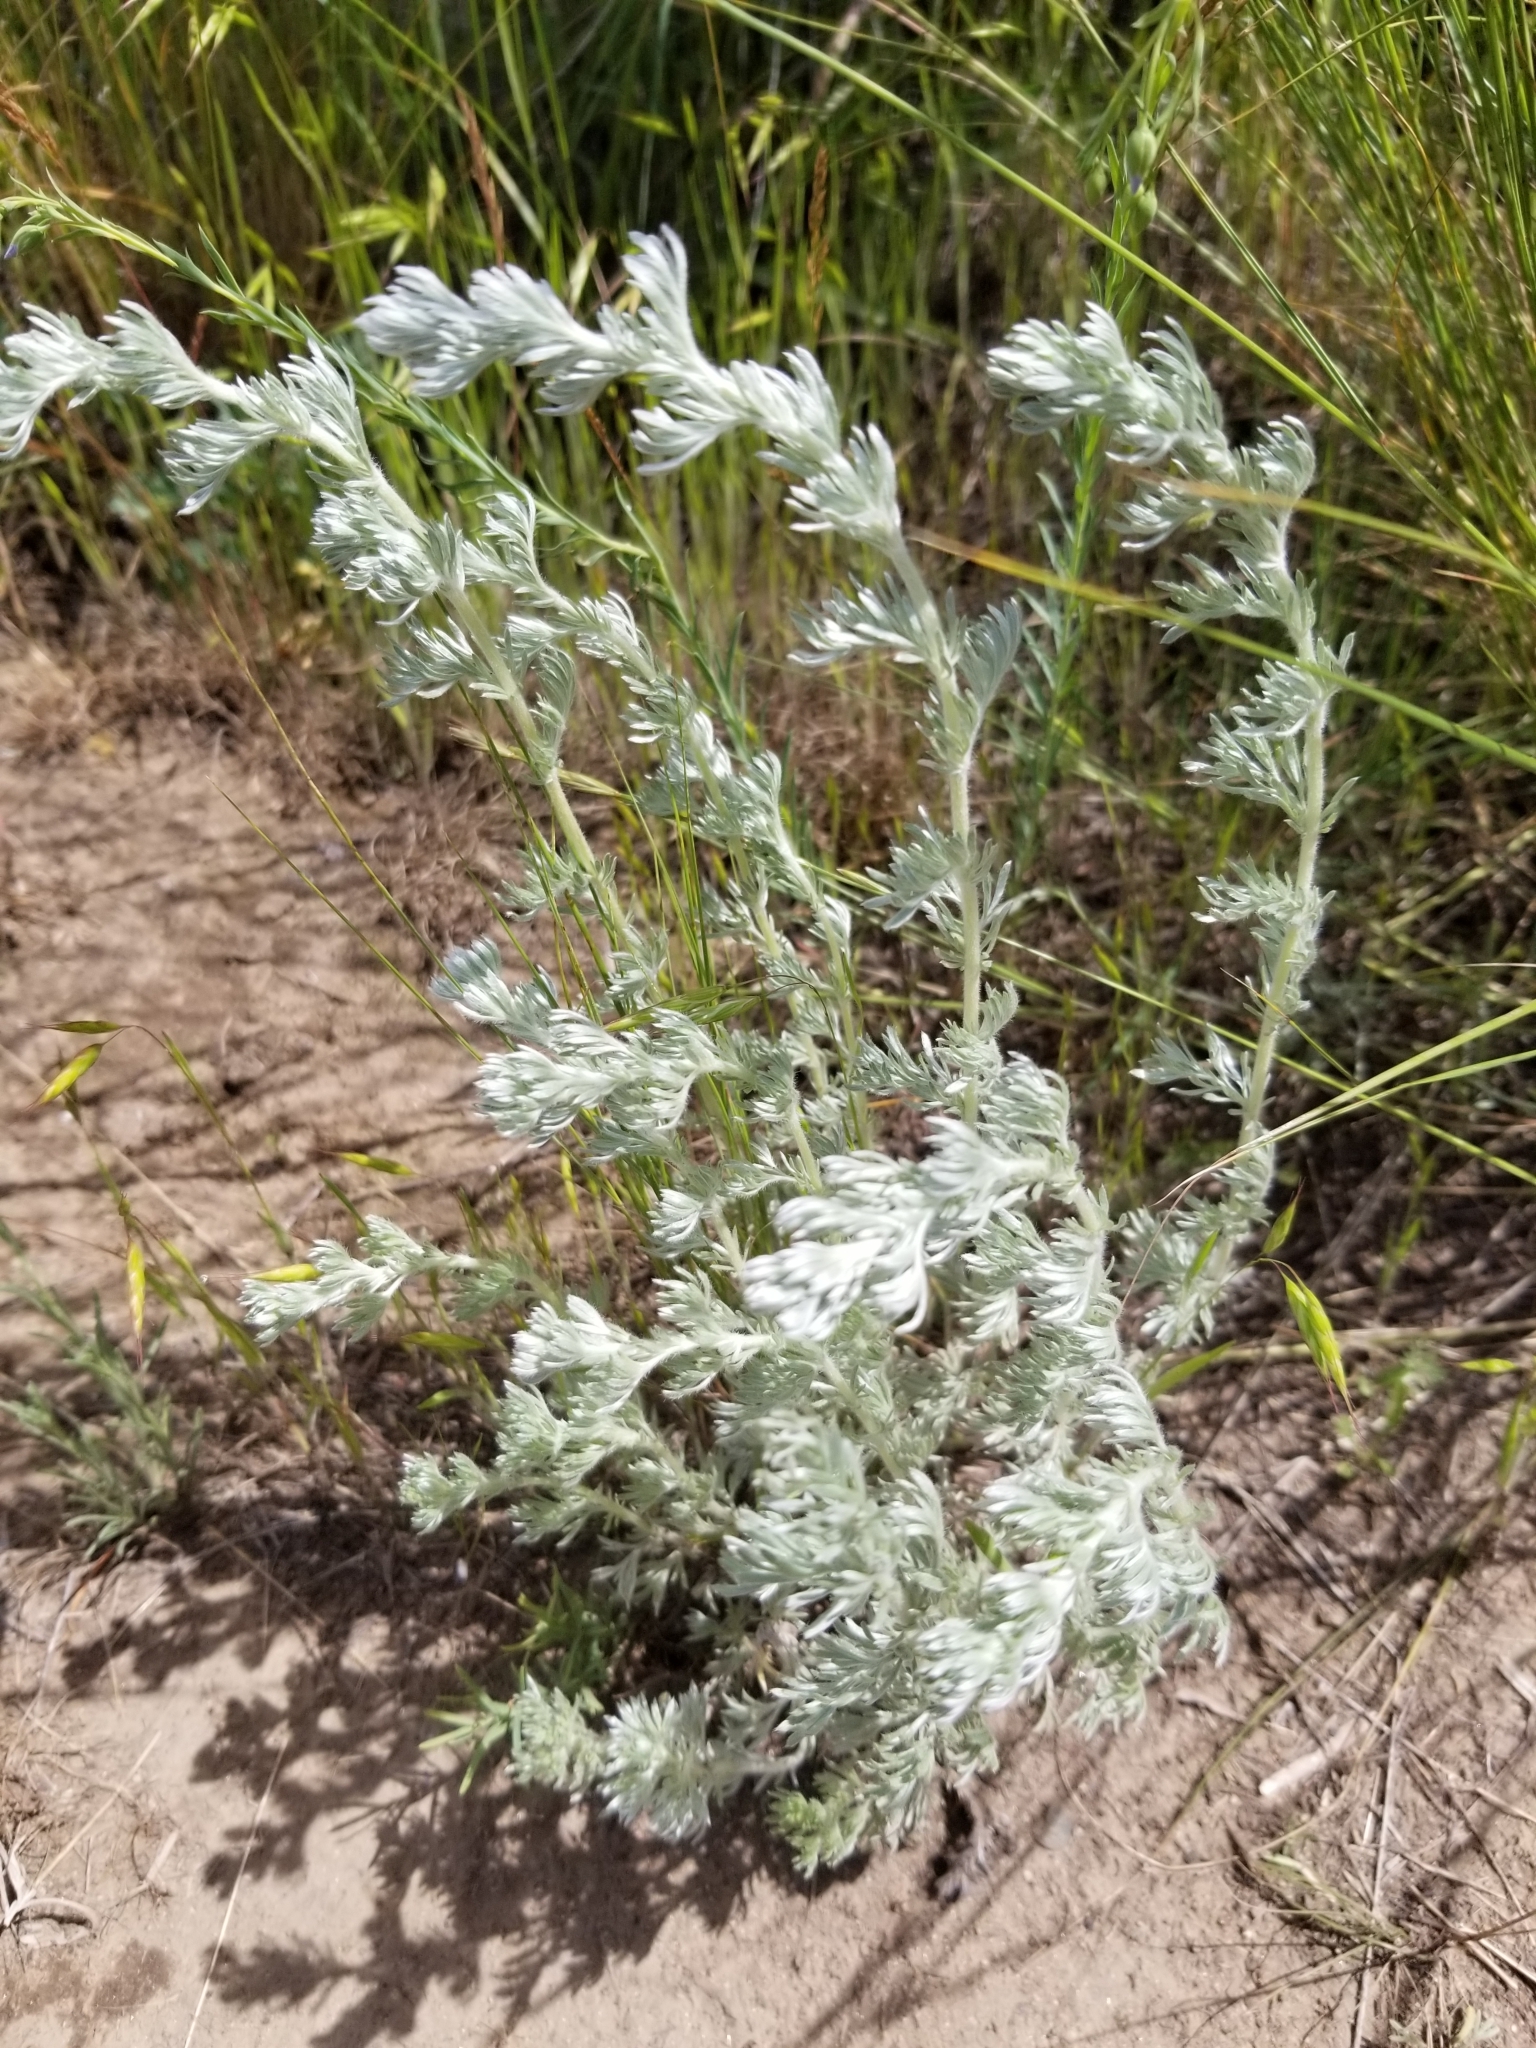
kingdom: Plantae
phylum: Tracheophyta
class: Magnoliopsida
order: Asterales
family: Asteraceae
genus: Artemisia
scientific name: Artemisia frigida
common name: Prairie sagewort
